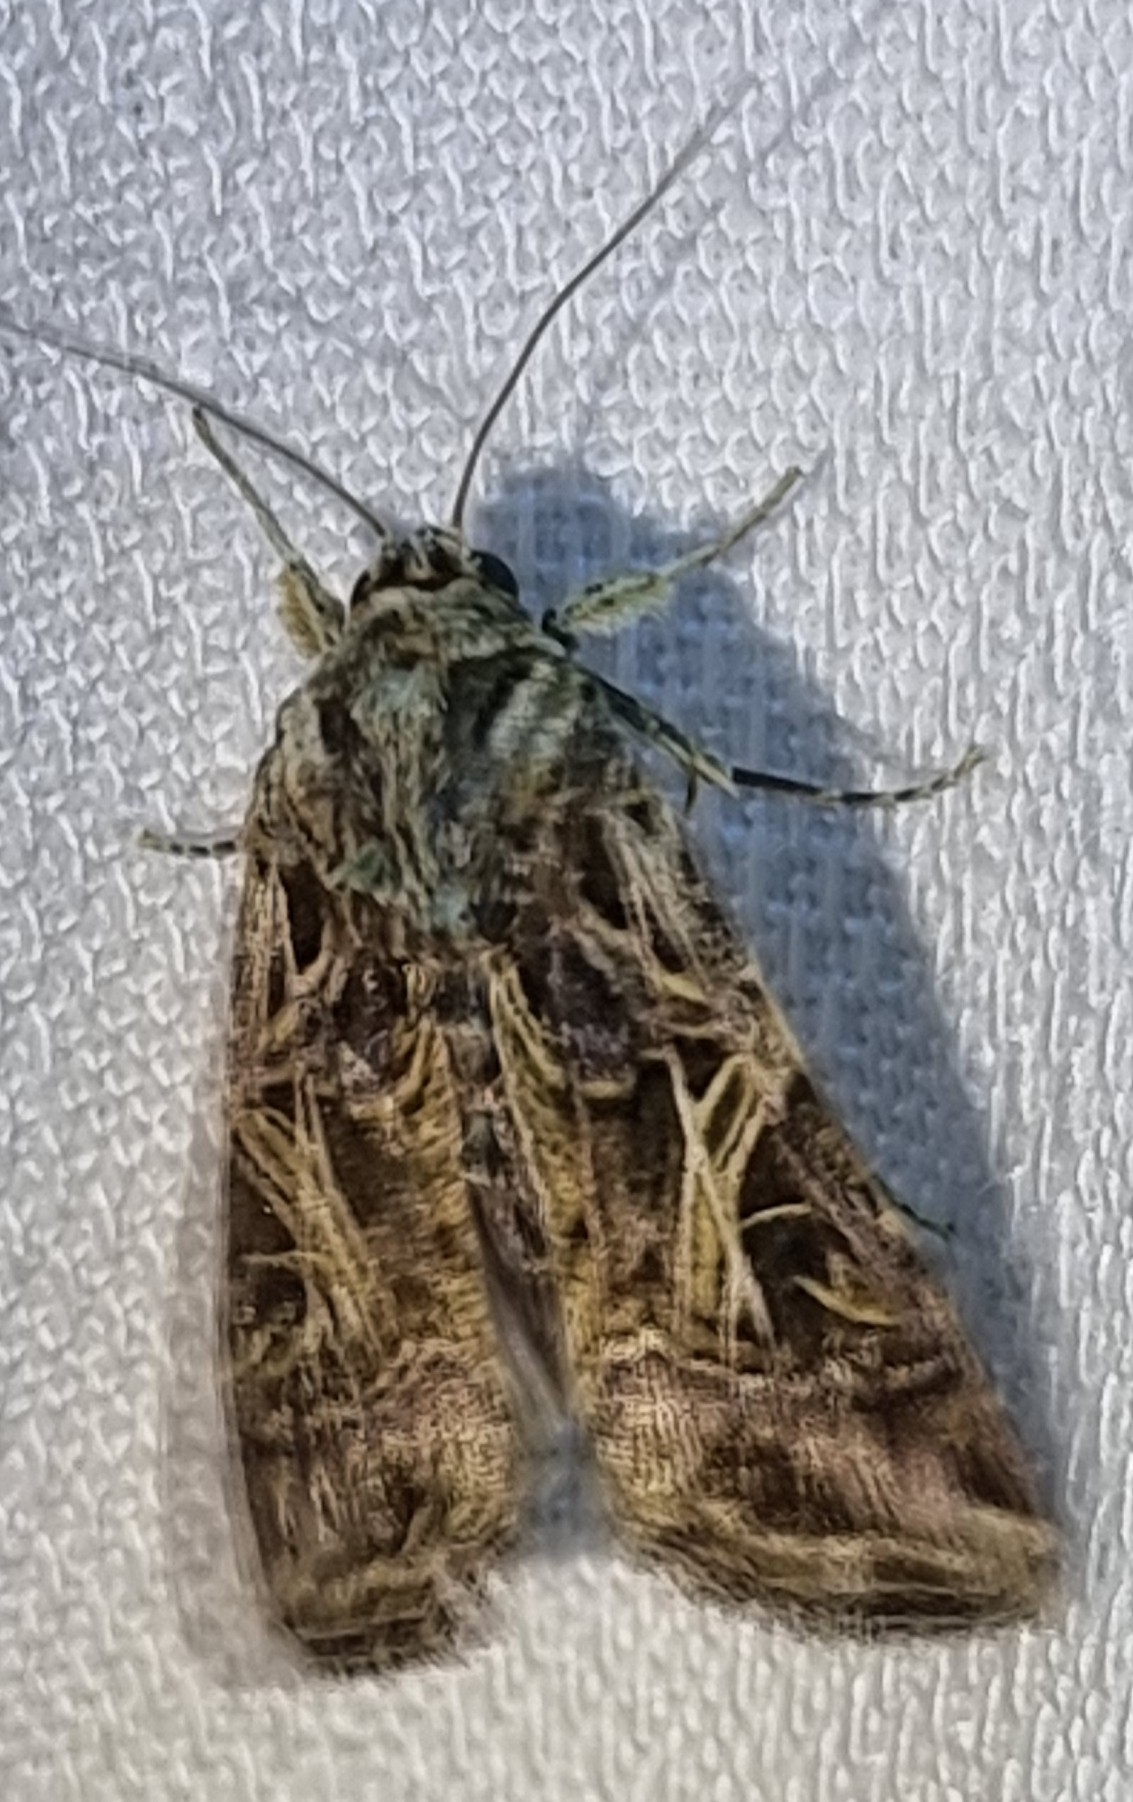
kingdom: Animalia
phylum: Arthropoda
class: Insecta
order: Lepidoptera
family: Noctuidae
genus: Spodoptera
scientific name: Spodoptera litura
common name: Asian cotton leafworm
